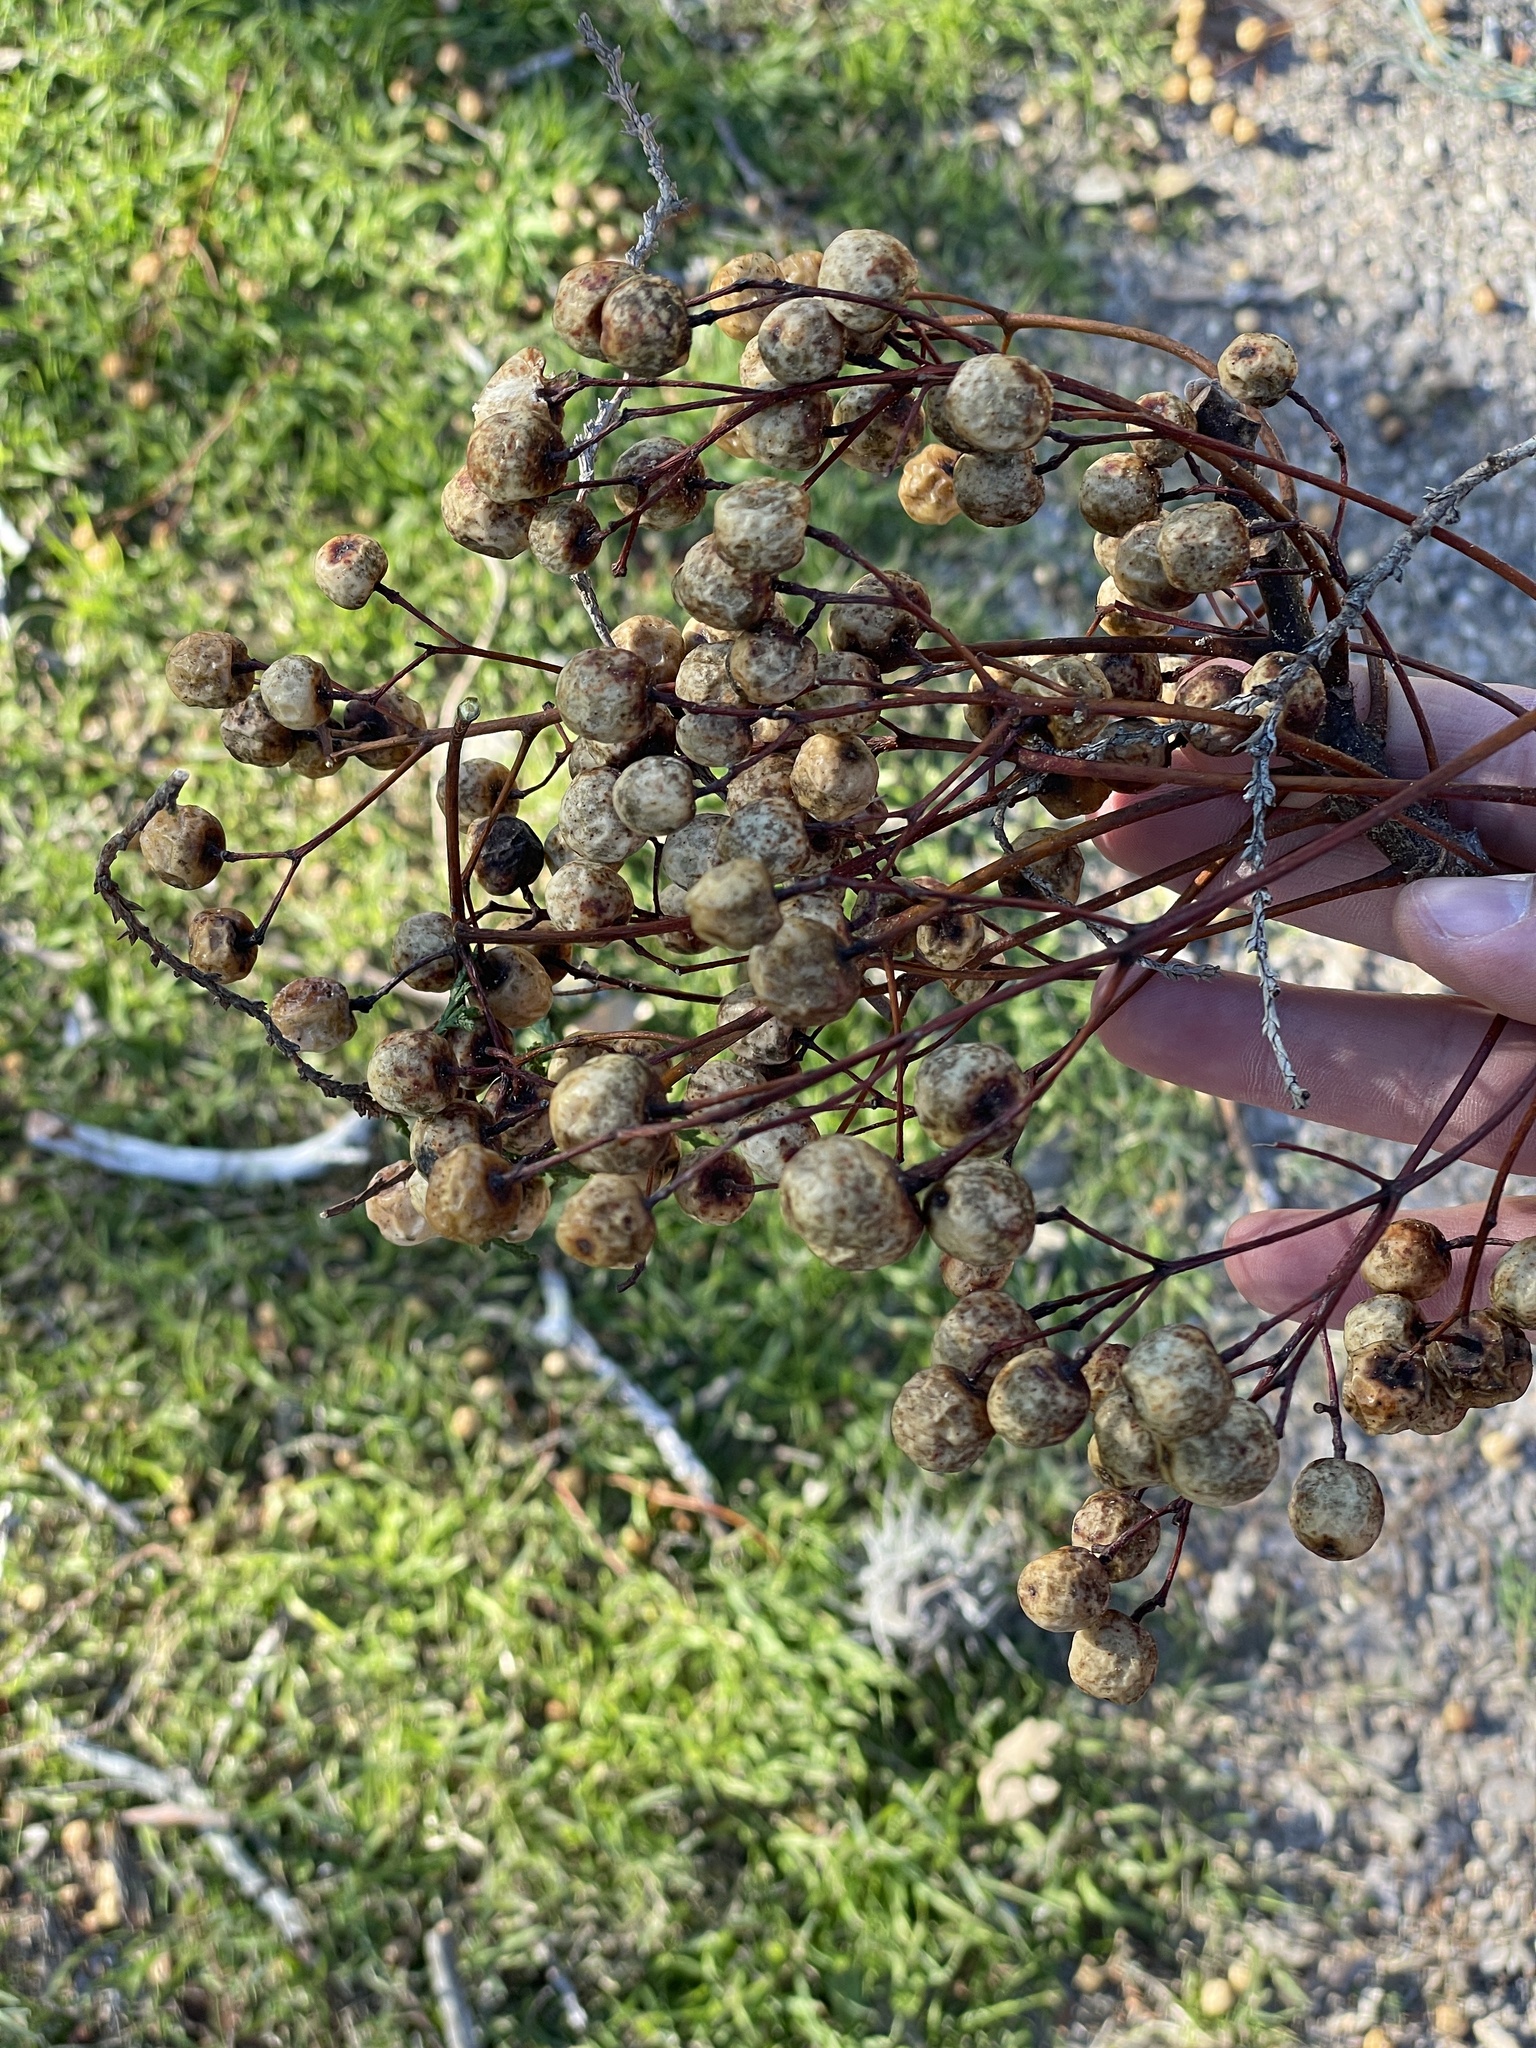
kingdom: Plantae
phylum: Tracheophyta
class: Magnoliopsida
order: Sapindales
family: Meliaceae
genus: Melia
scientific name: Melia azedarach
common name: Chinaberrytree
